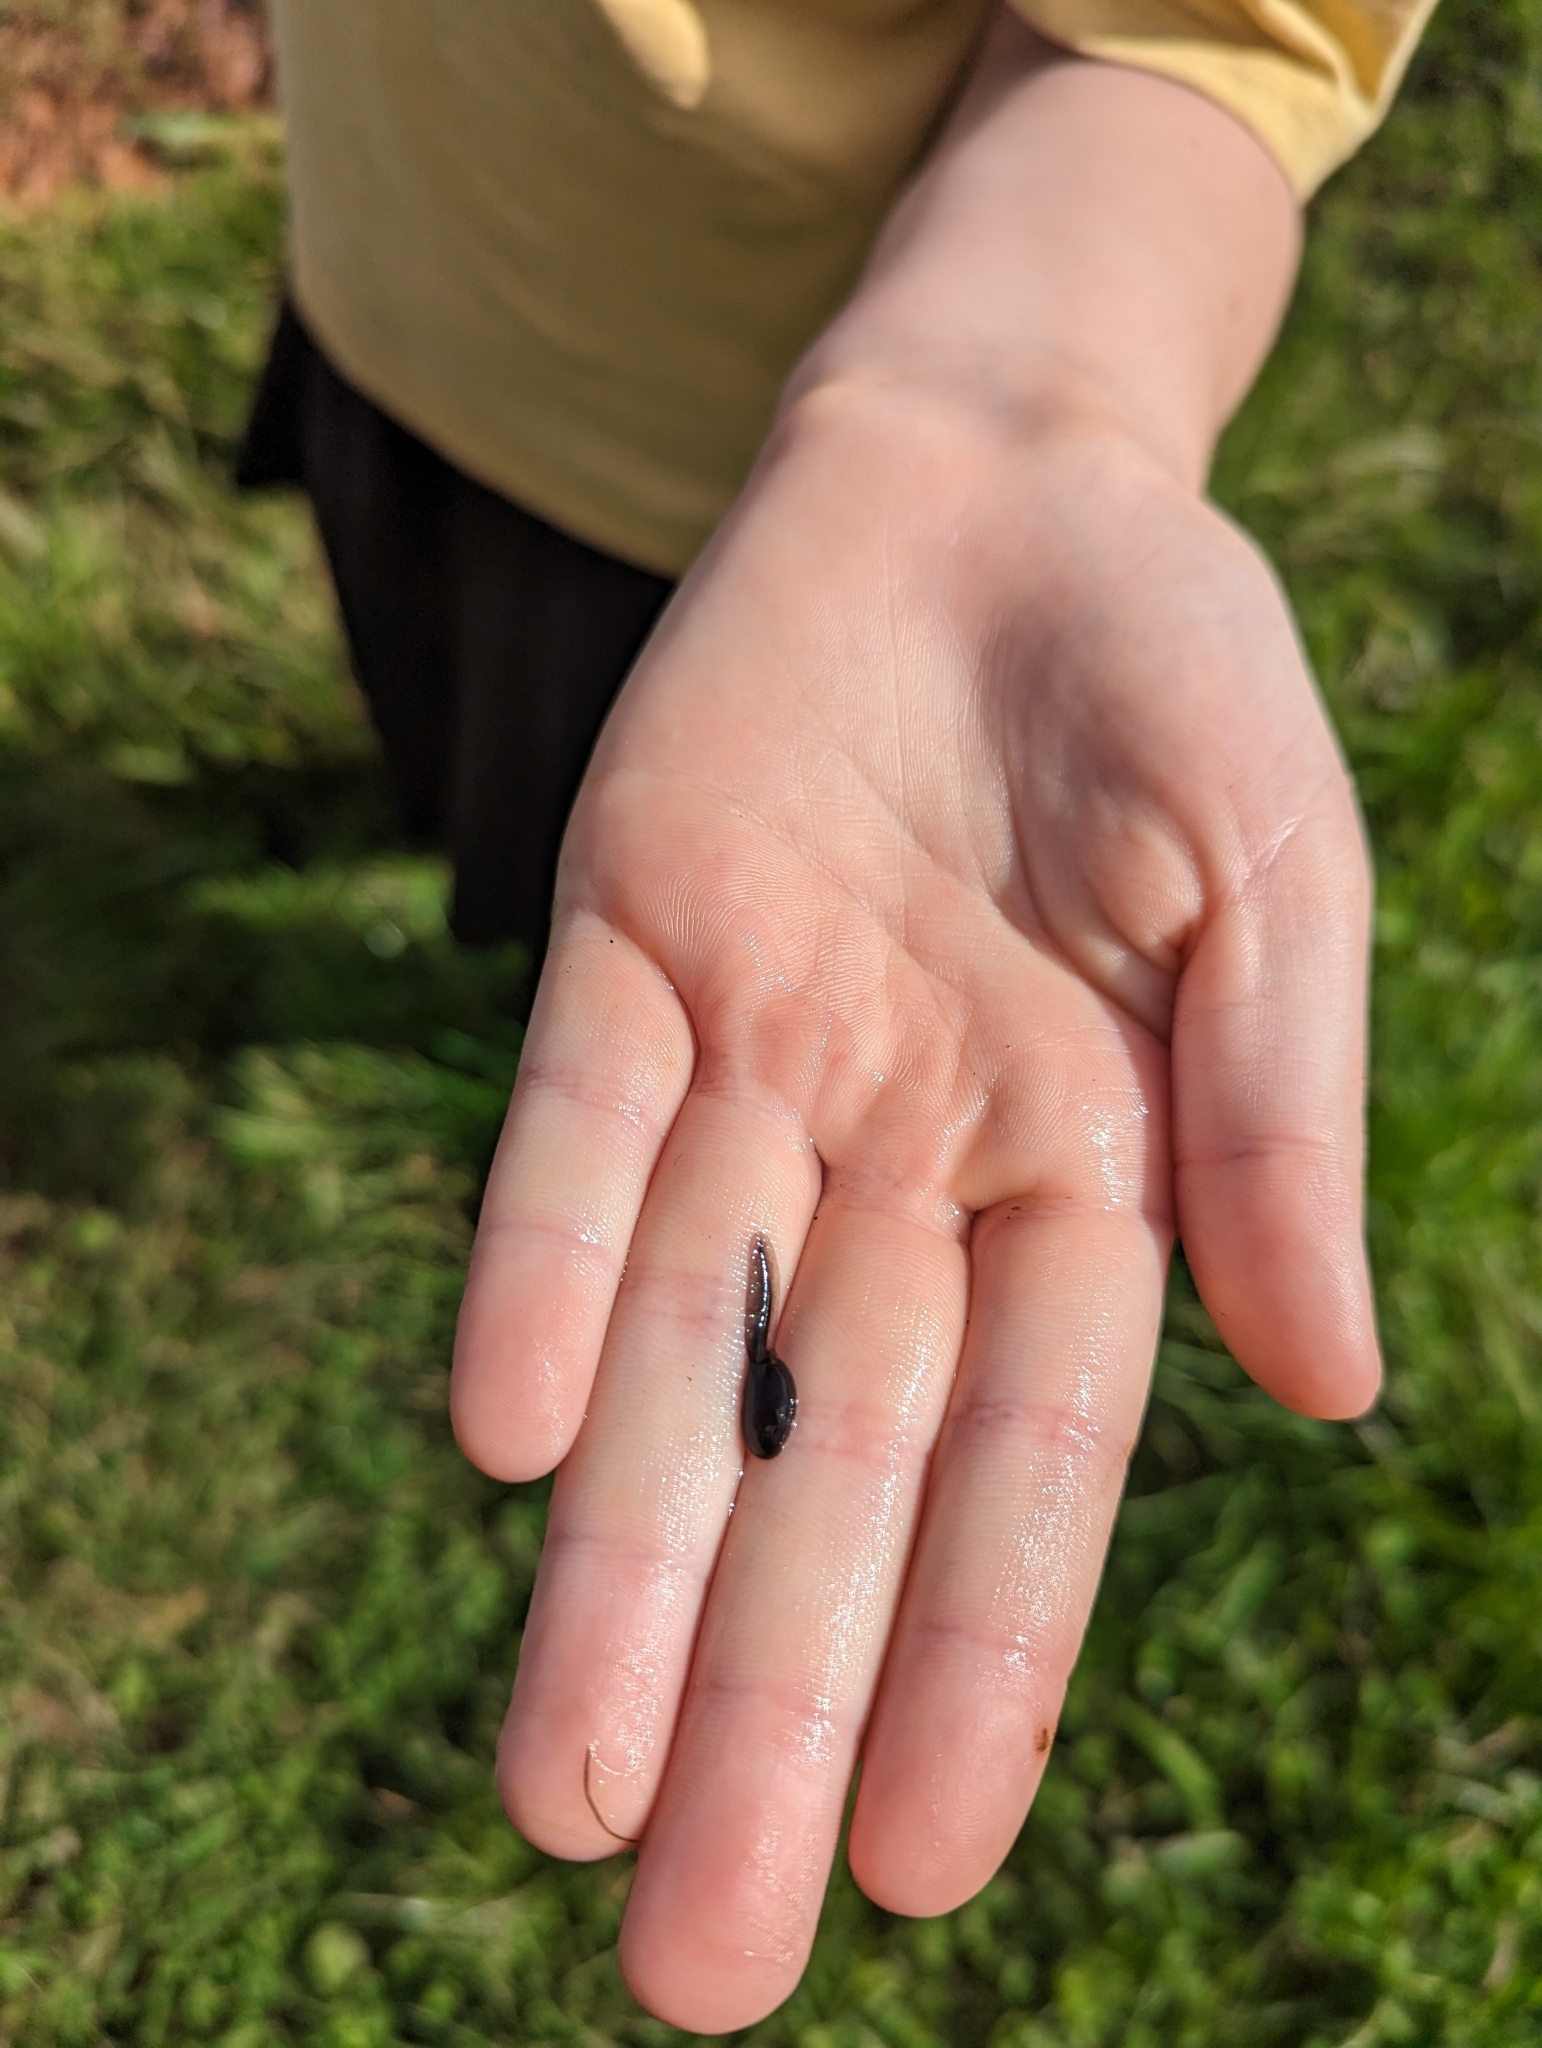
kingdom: Animalia
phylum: Chordata
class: Amphibia
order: Anura
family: Bufonidae
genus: Bufo
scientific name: Bufo bufo
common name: Common toad
